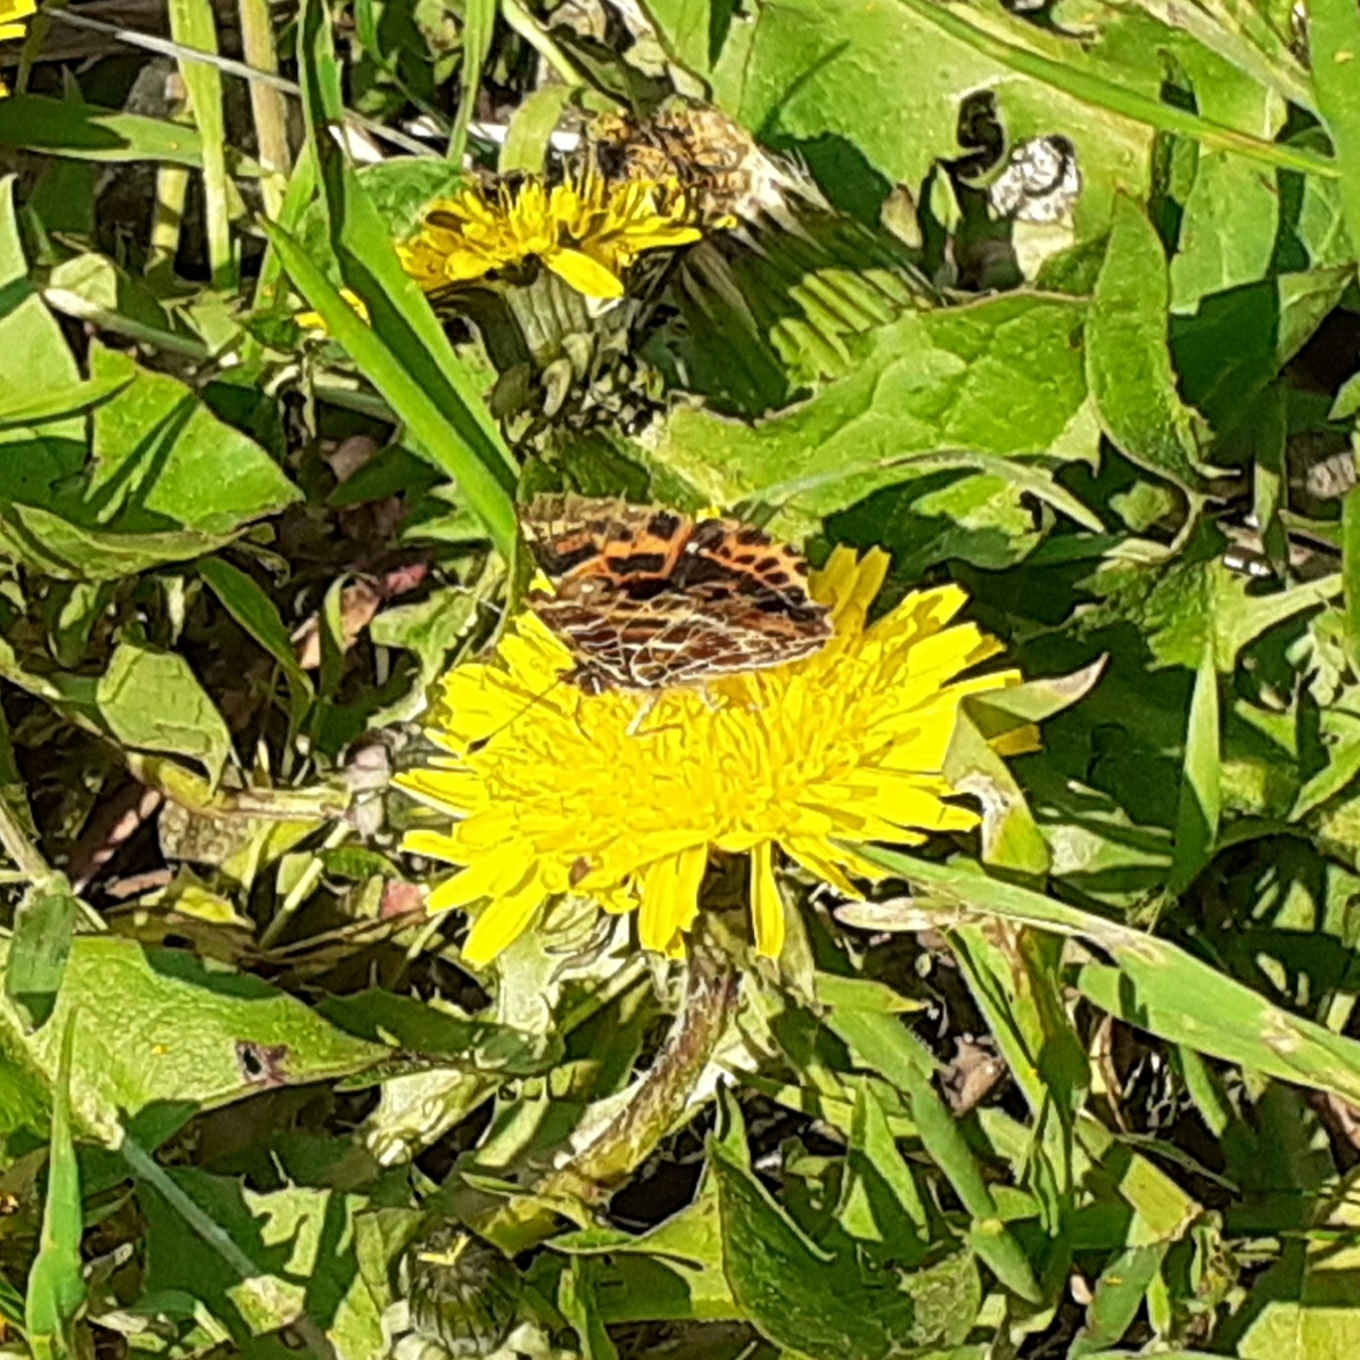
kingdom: Animalia
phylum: Arthropoda
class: Insecta
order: Lepidoptera
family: Nymphalidae
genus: Araschnia
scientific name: Araschnia levana
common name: Map butterfly
